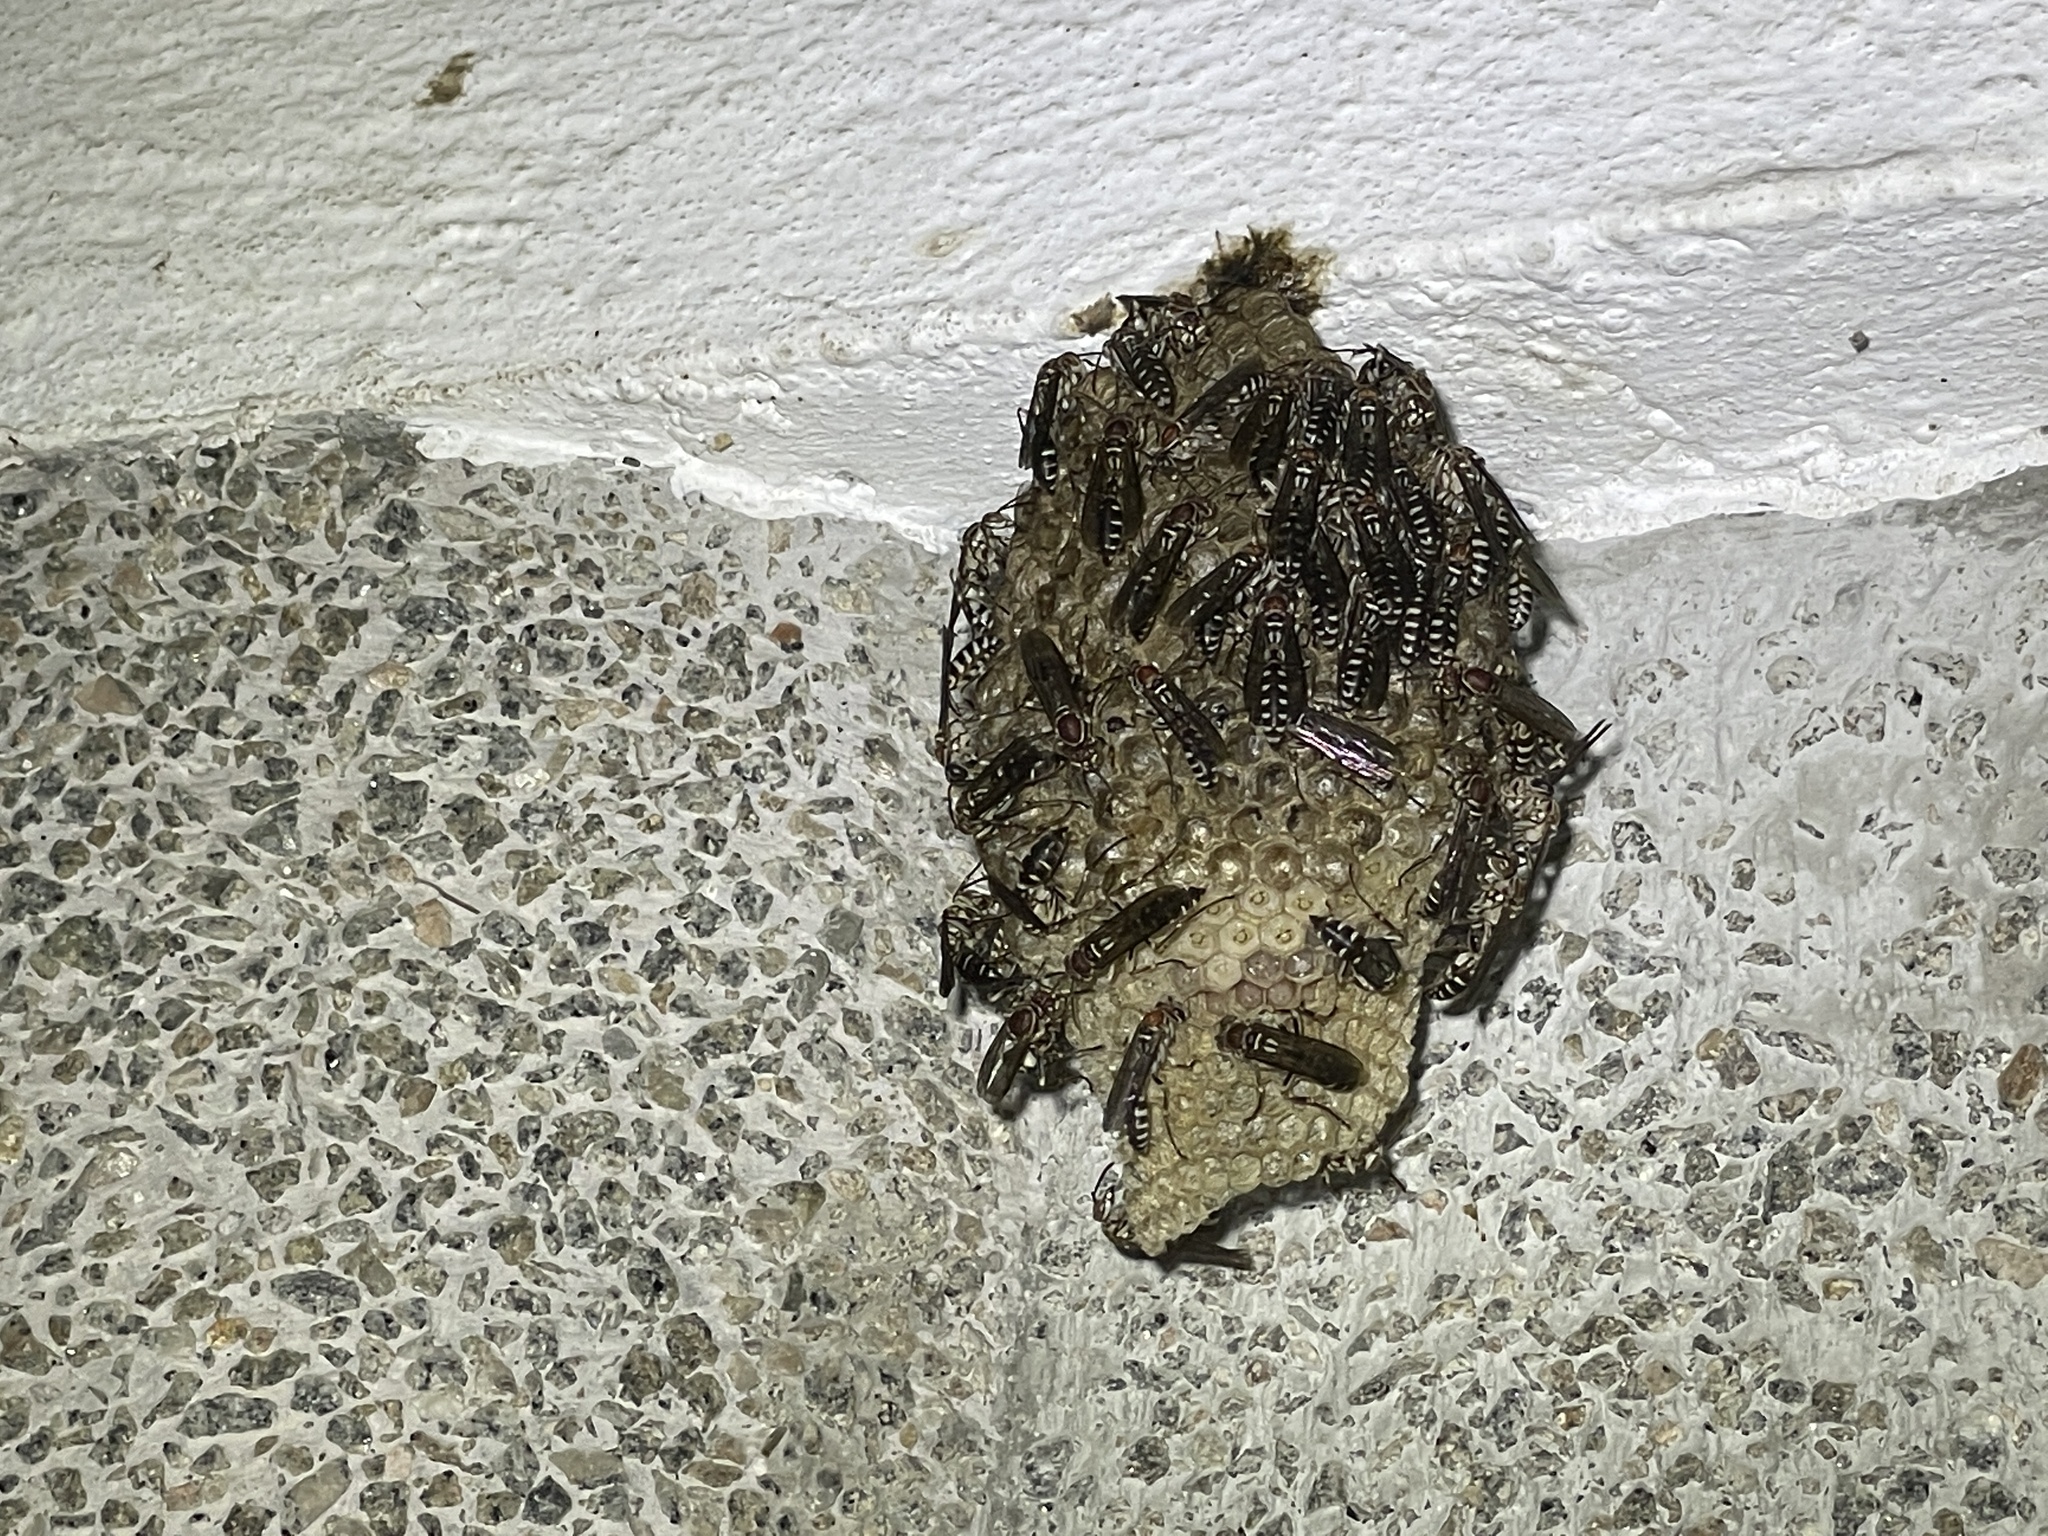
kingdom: Animalia
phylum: Arthropoda
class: Insecta
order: Hymenoptera
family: Vespidae
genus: Parapolybia
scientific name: Parapolybia nodosa
